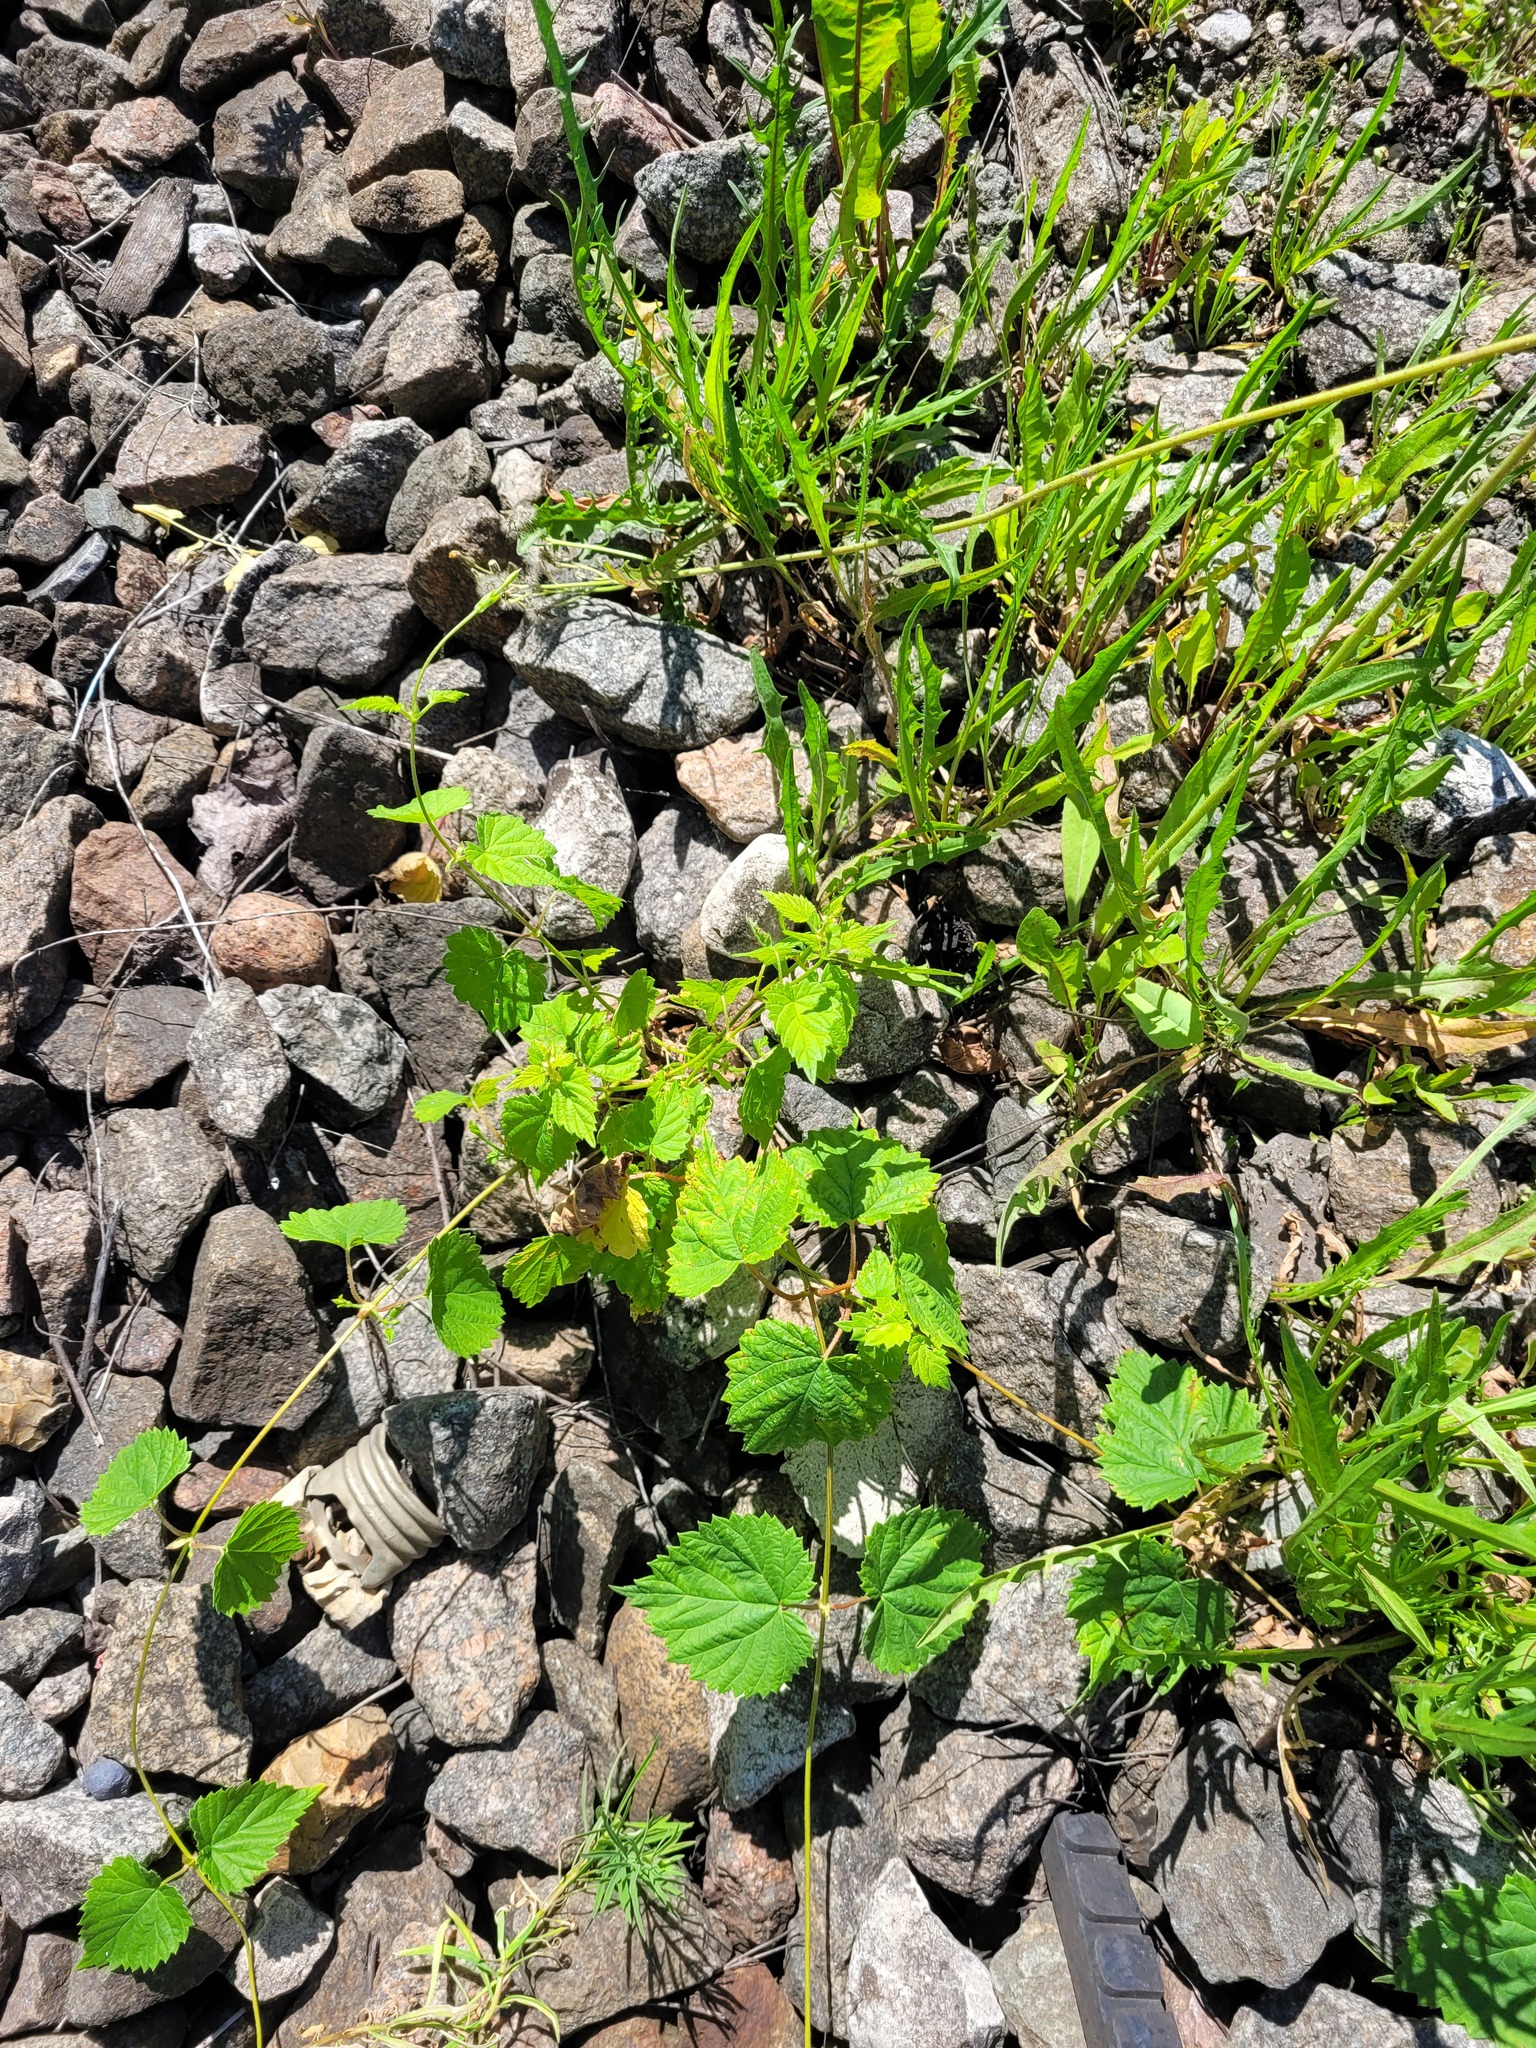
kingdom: Plantae
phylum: Tracheophyta
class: Magnoliopsida
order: Rosales
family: Cannabaceae
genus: Humulus
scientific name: Humulus lupulus
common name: Hop
